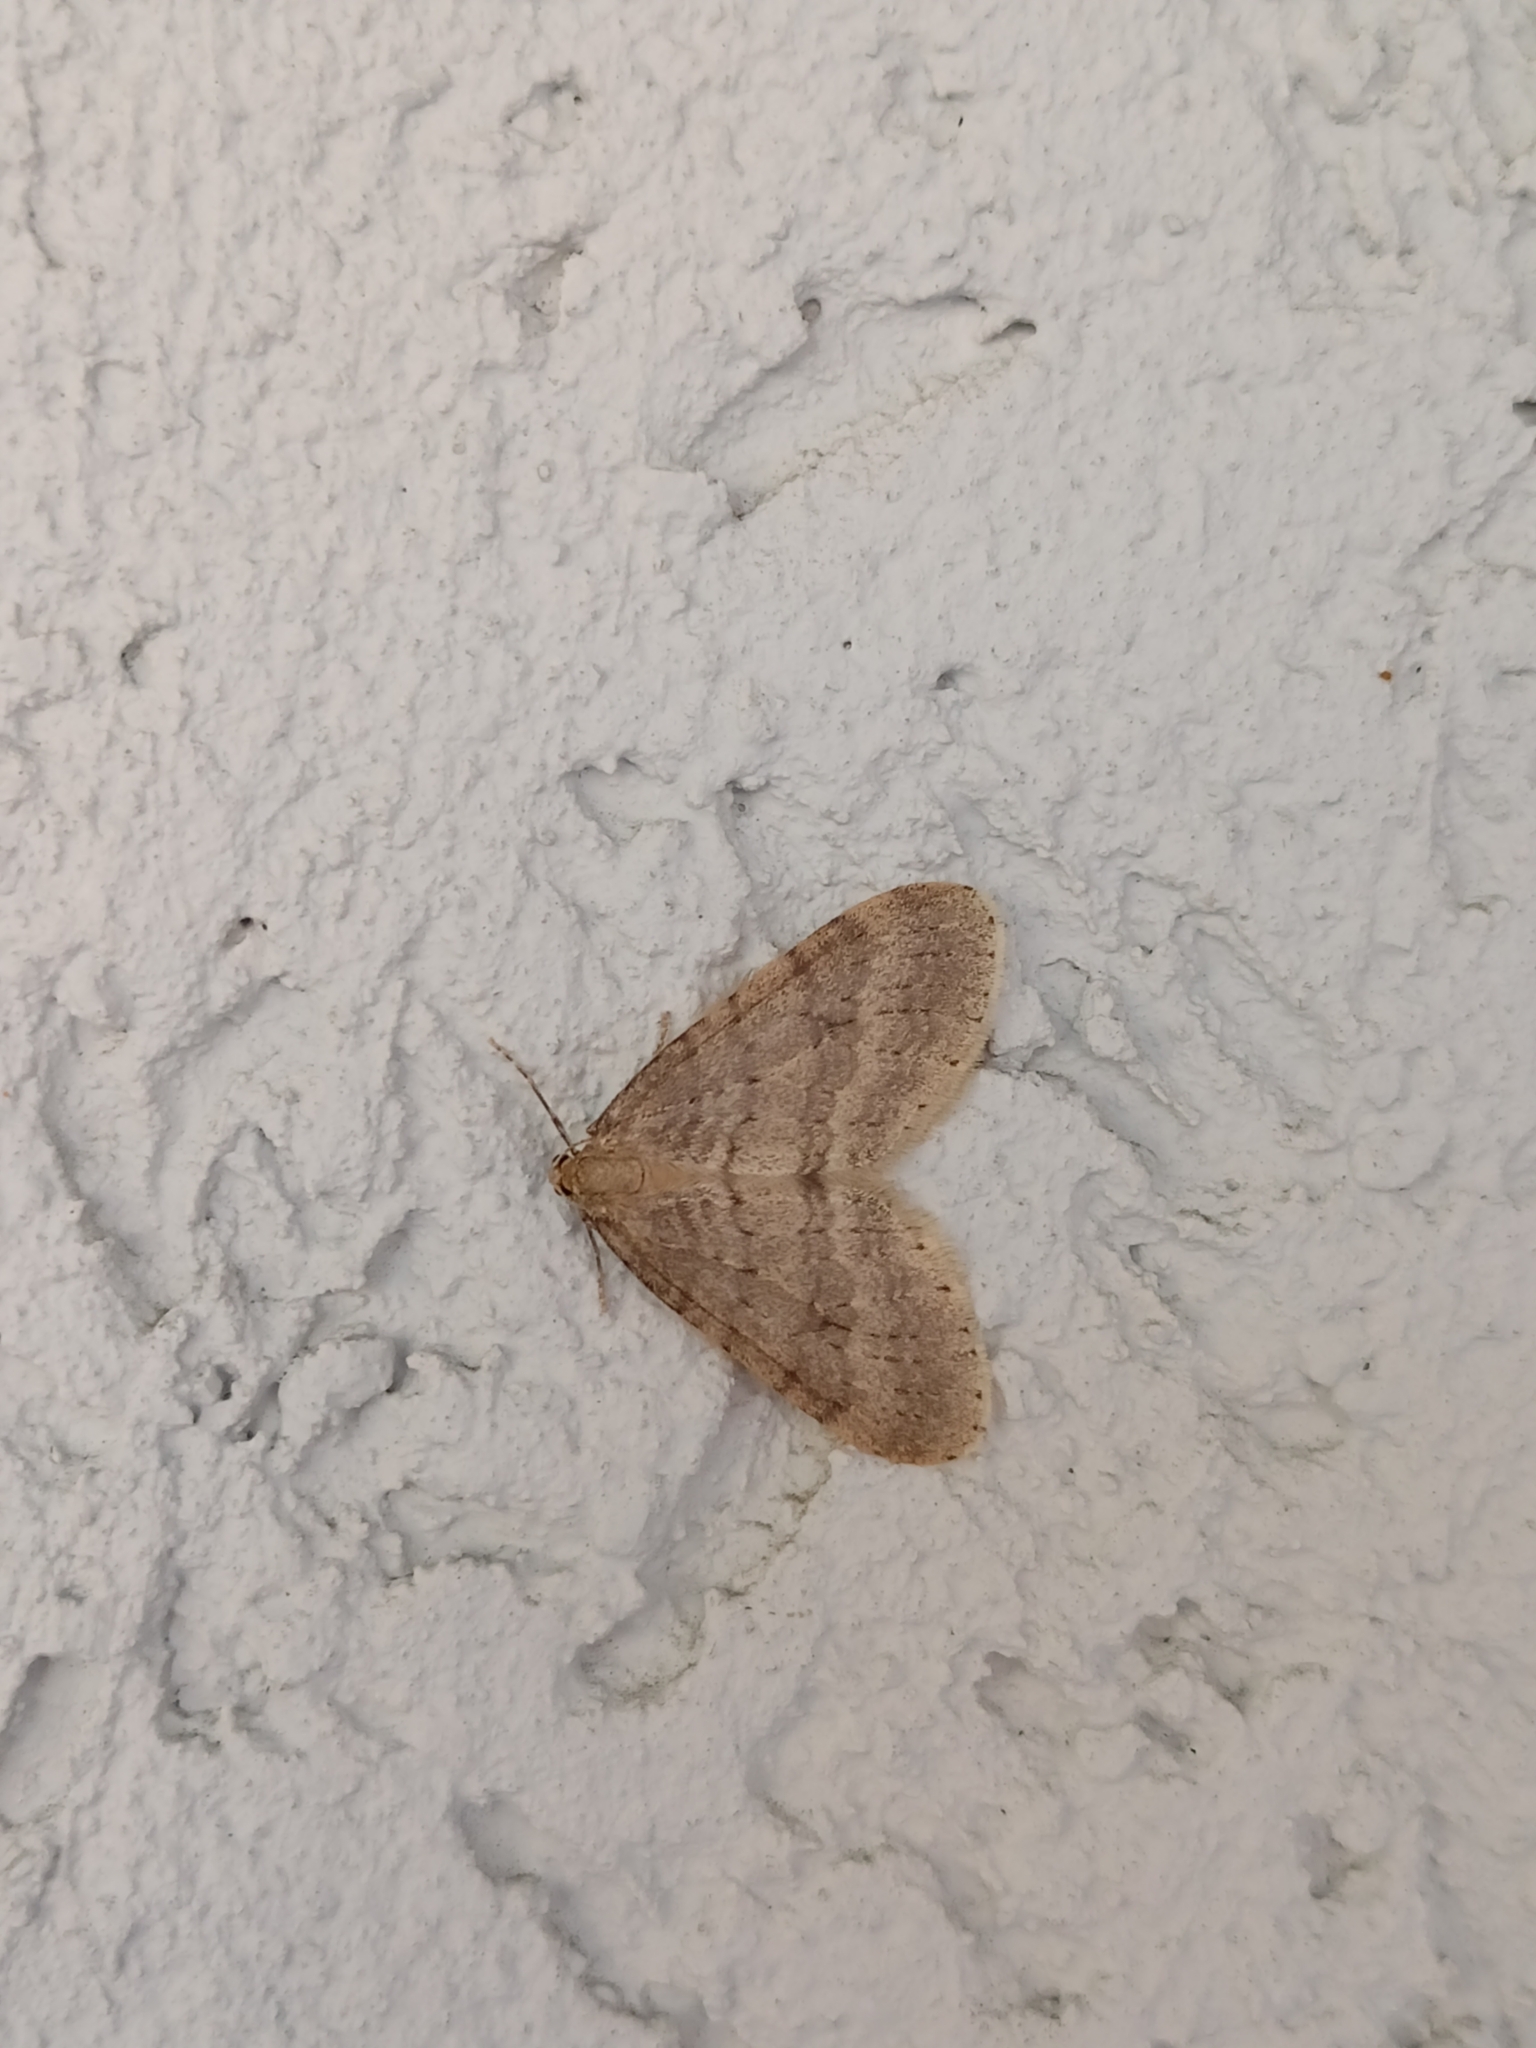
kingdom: Animalia
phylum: Arthropoda
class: Insecta
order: Lepidoptera
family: Geometridae
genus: Operophtera
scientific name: Operophtera brumata
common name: Winter moth
